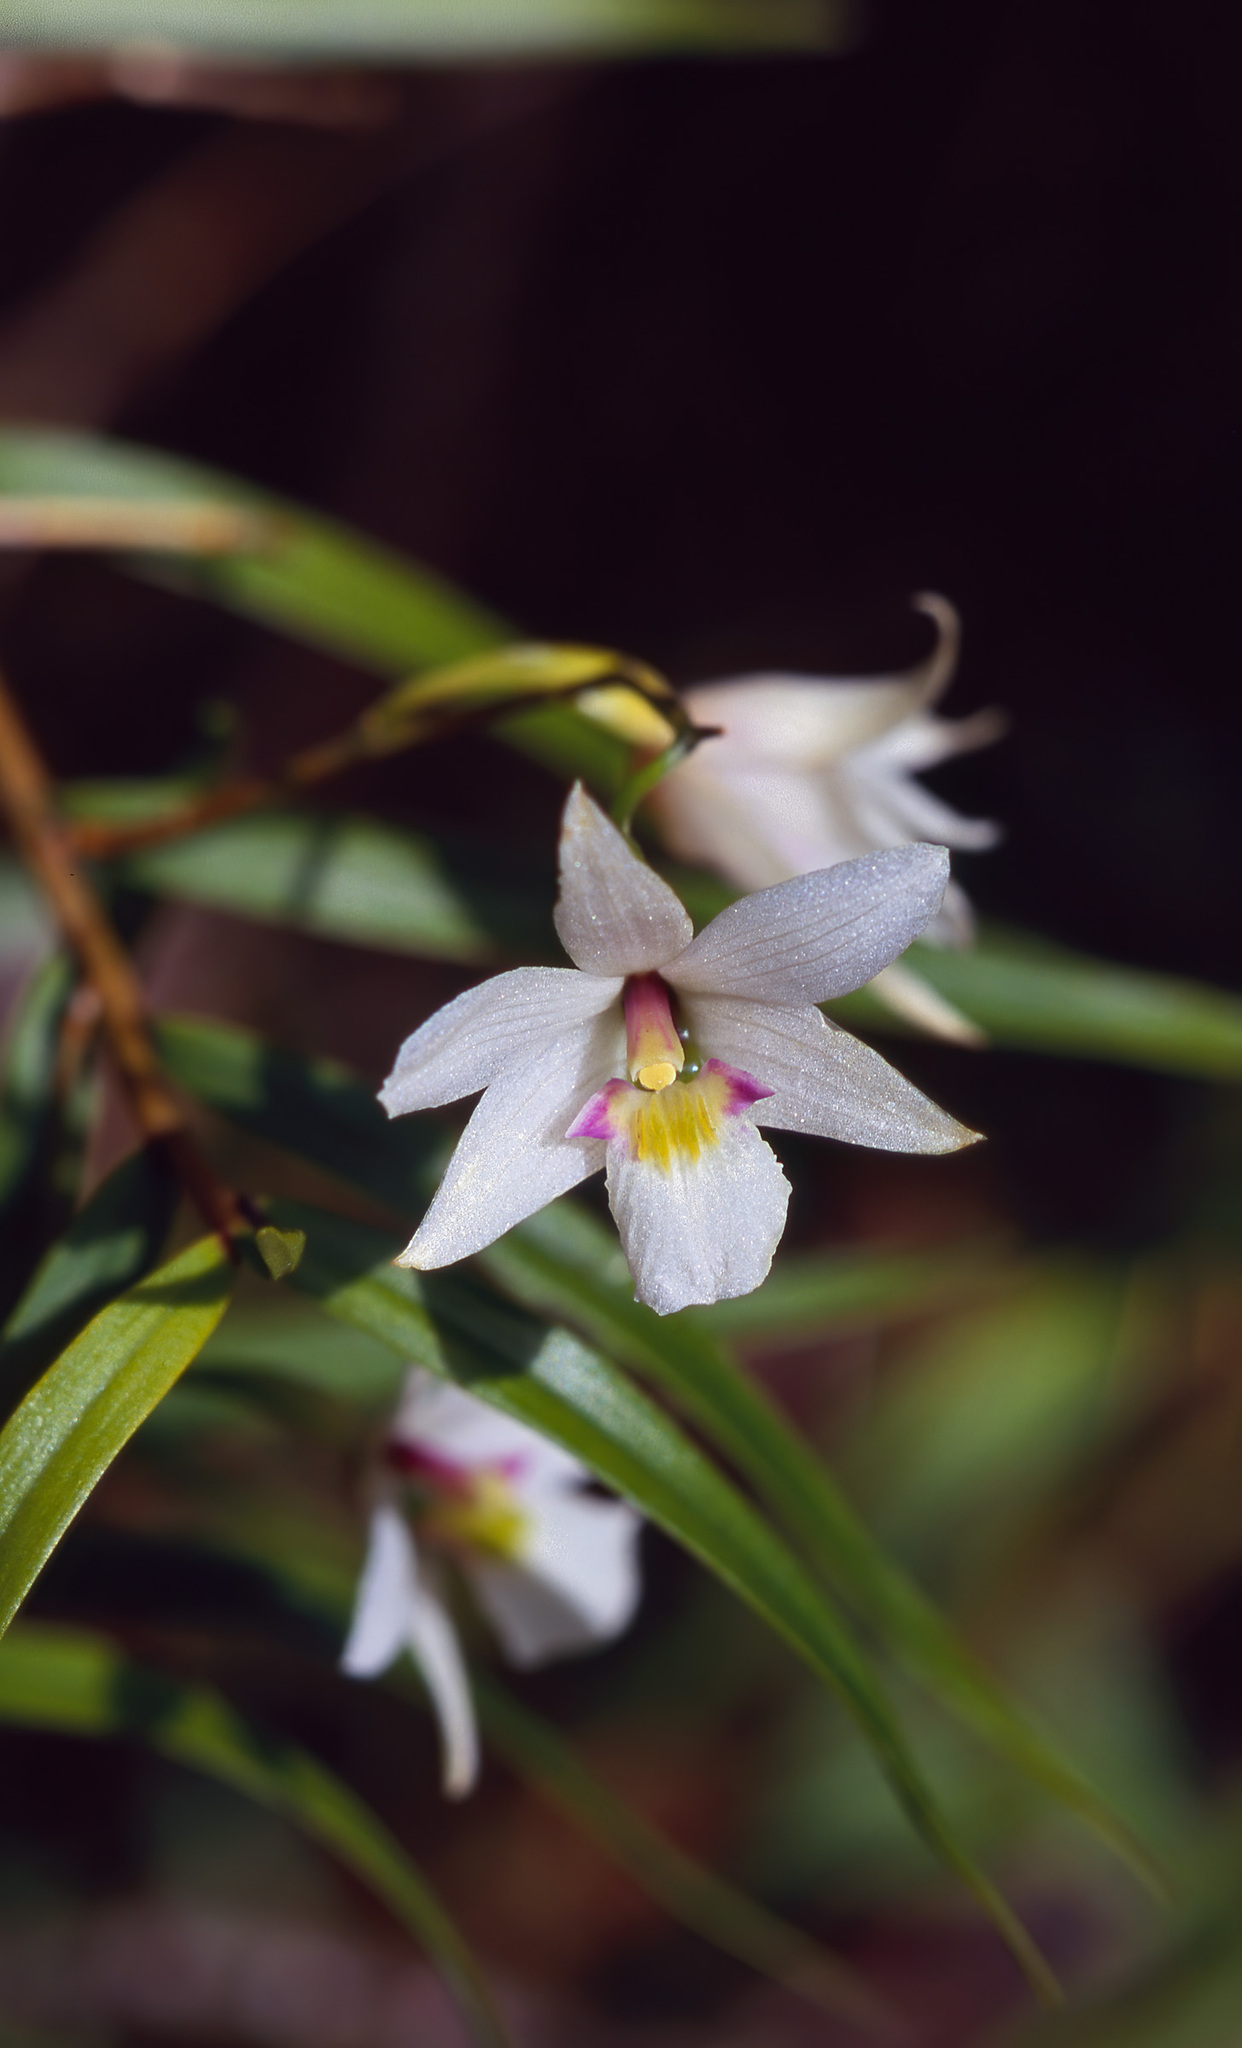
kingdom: Plantae
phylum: Tracheophyta
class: Liliopsida
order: Asparagales
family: Orchidaceae
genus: Dendrobium
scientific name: Dendrobium cunninghamii
